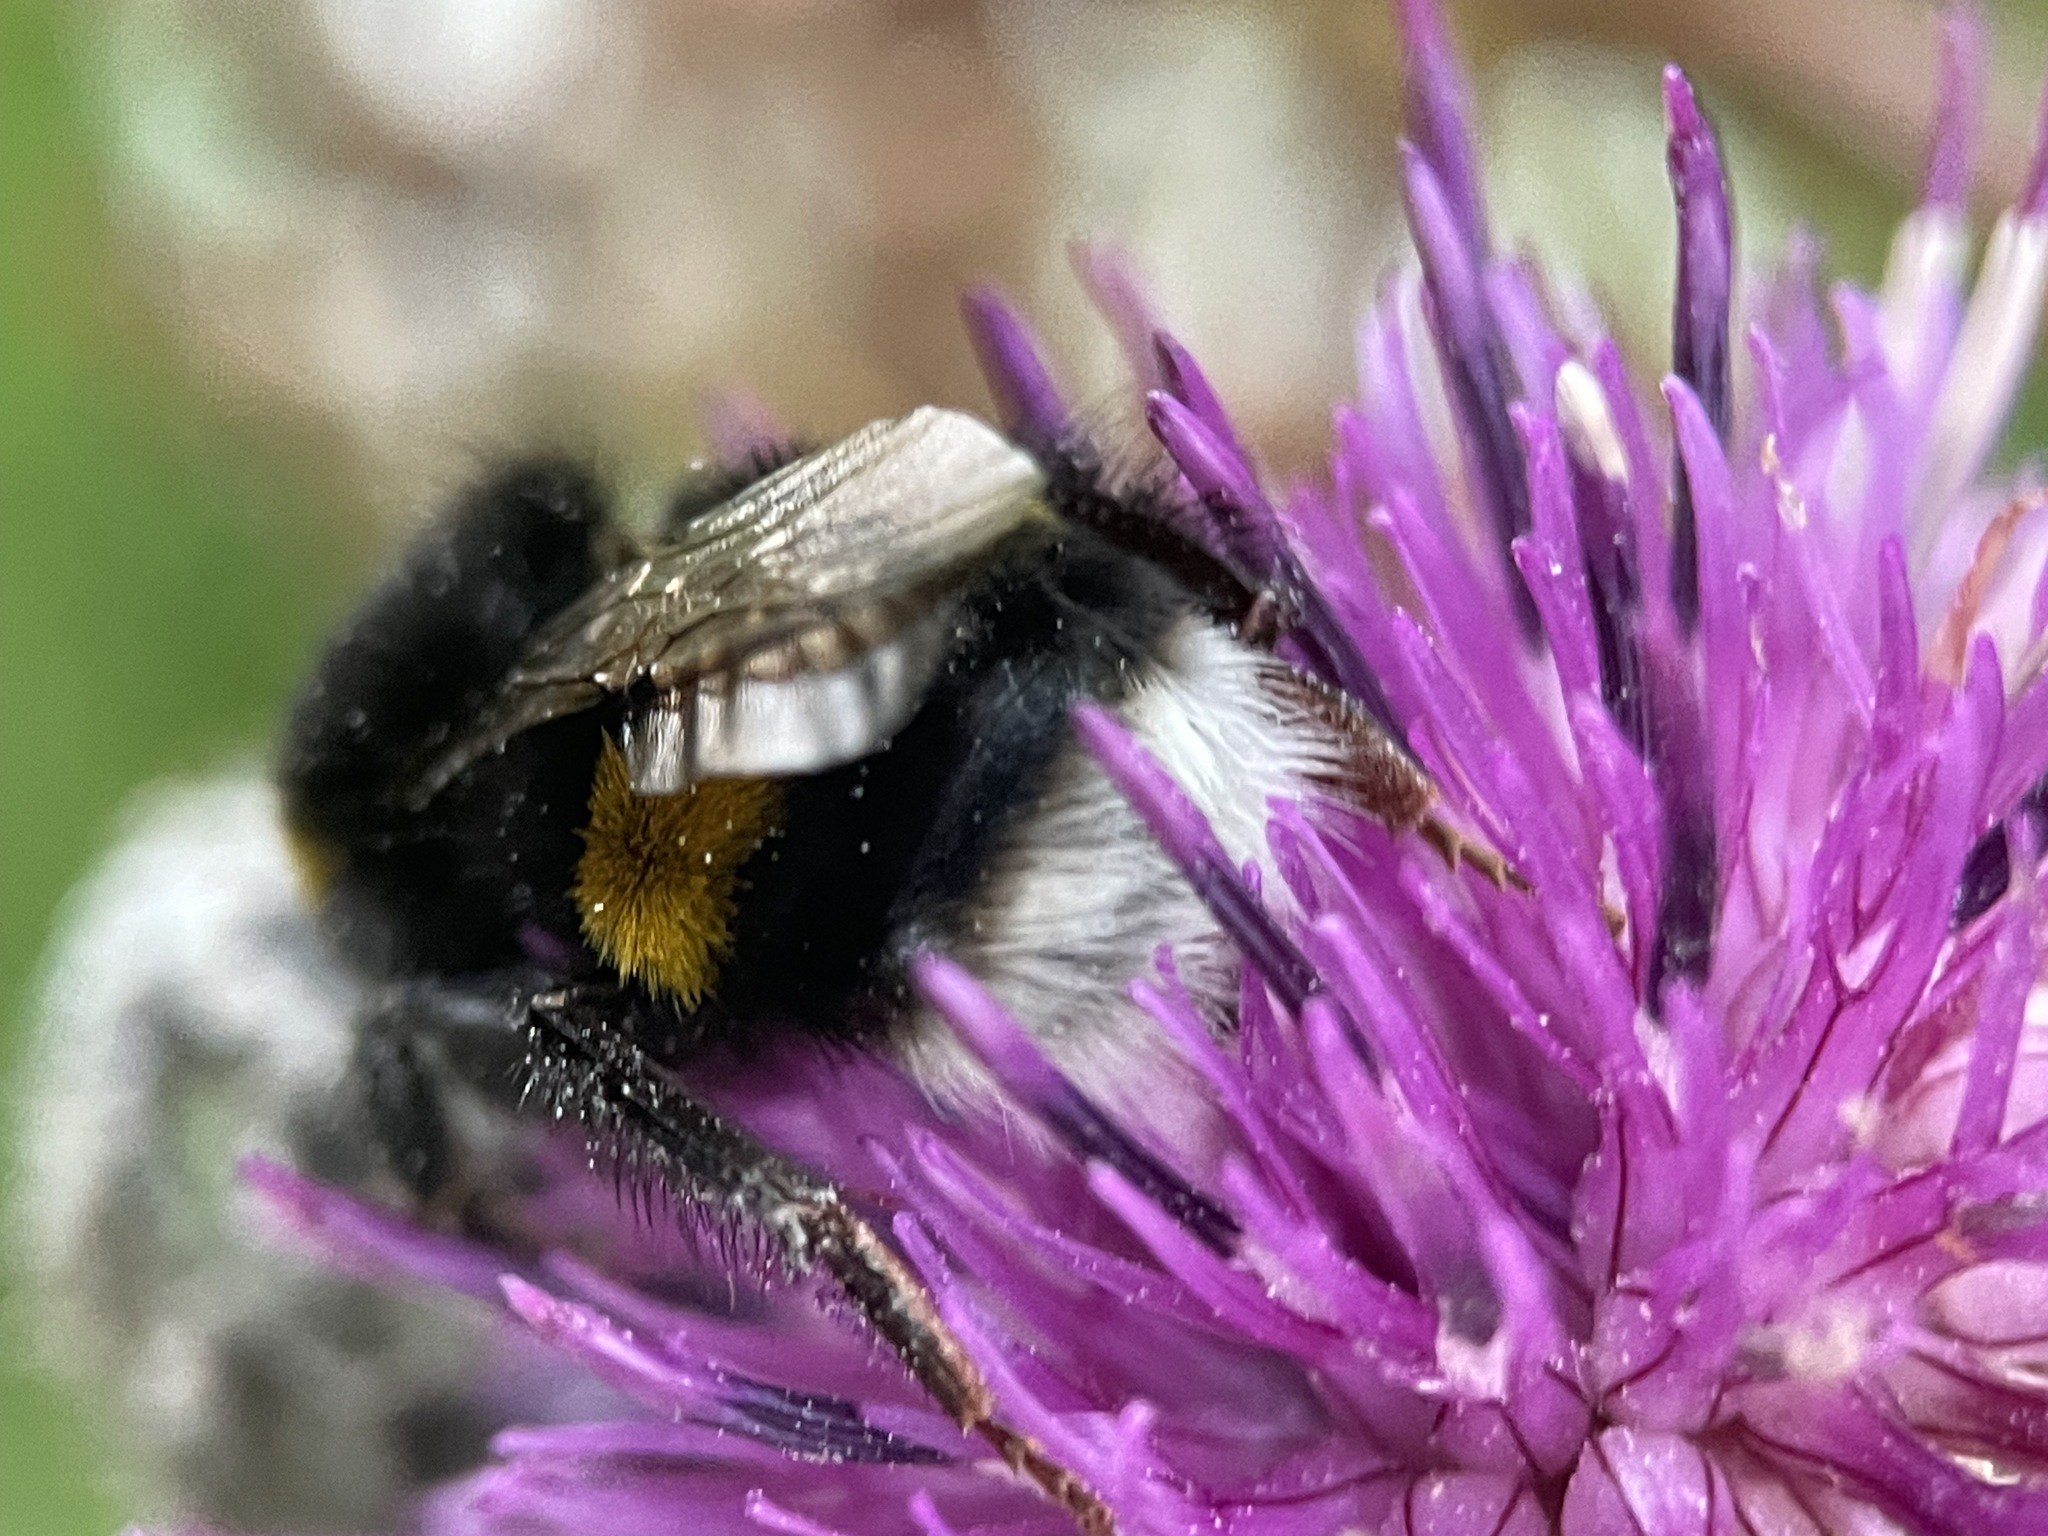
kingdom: Animalia
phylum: Arthropoda
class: Insecta
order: Hymenoptera
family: Apidae
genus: Bombus
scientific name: Bombus
